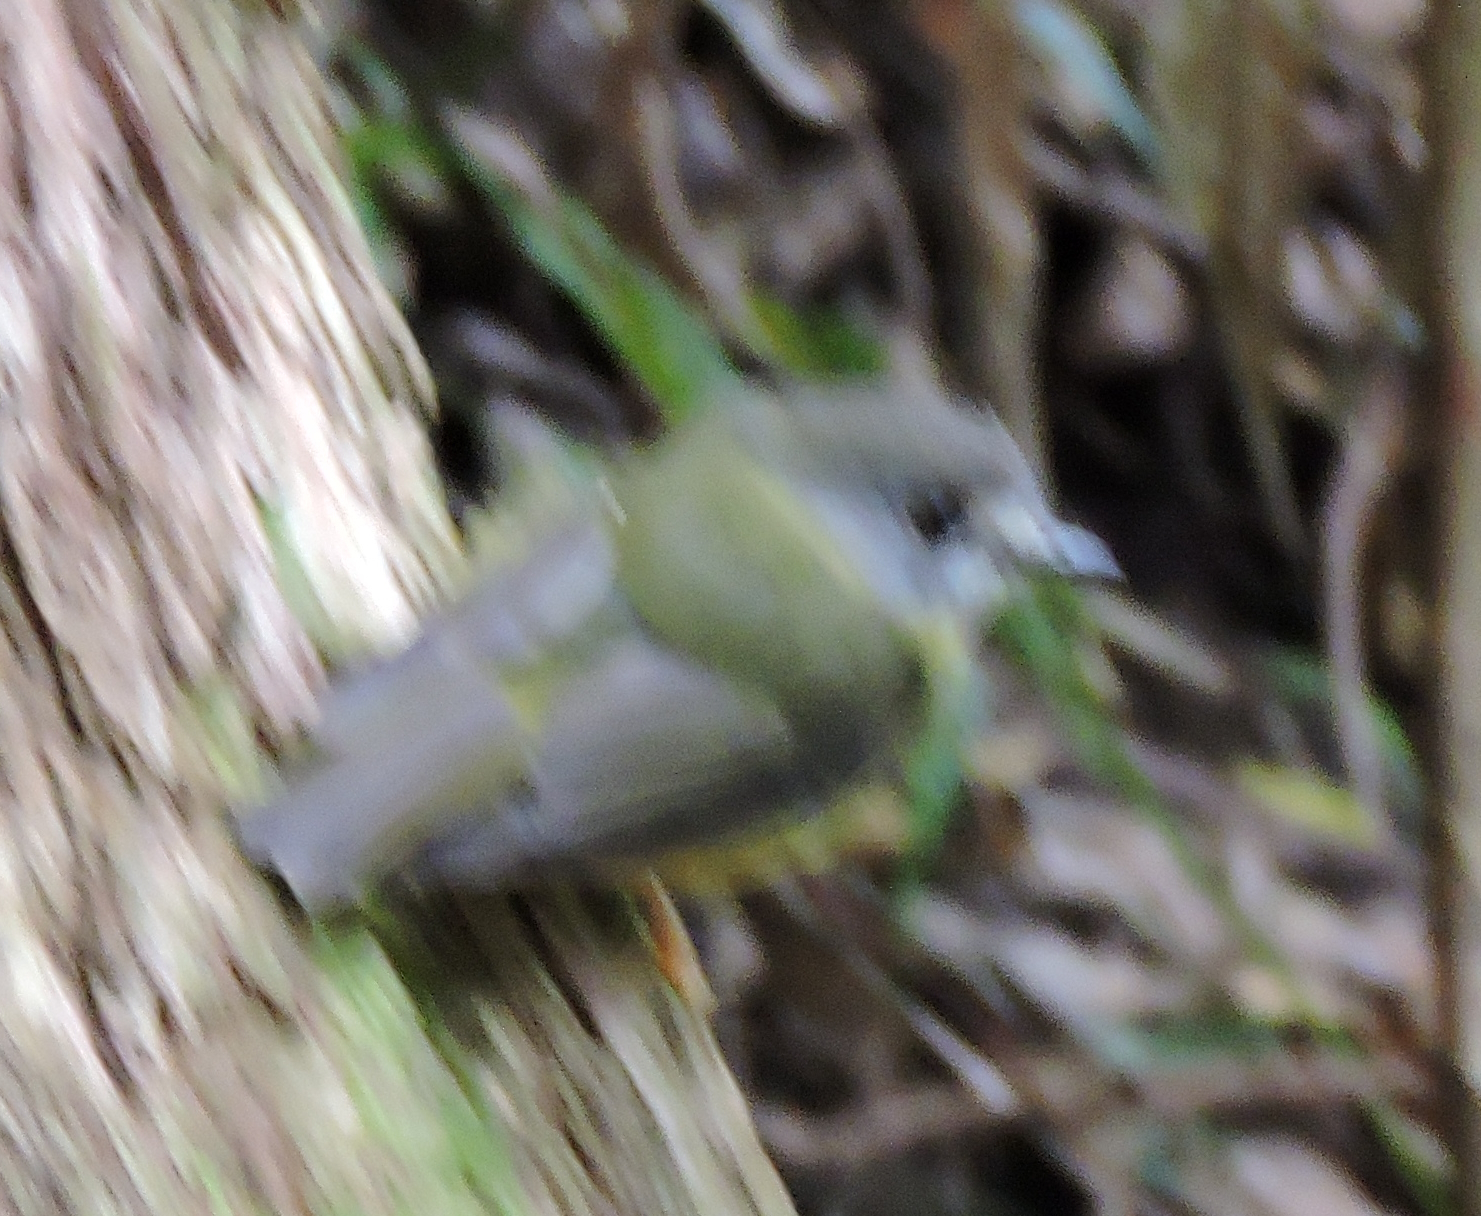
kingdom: Animalia
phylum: Chordata
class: Aves
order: Passeriformes
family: Petroicidae
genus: Eopsaltria
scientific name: Eopsaltria
